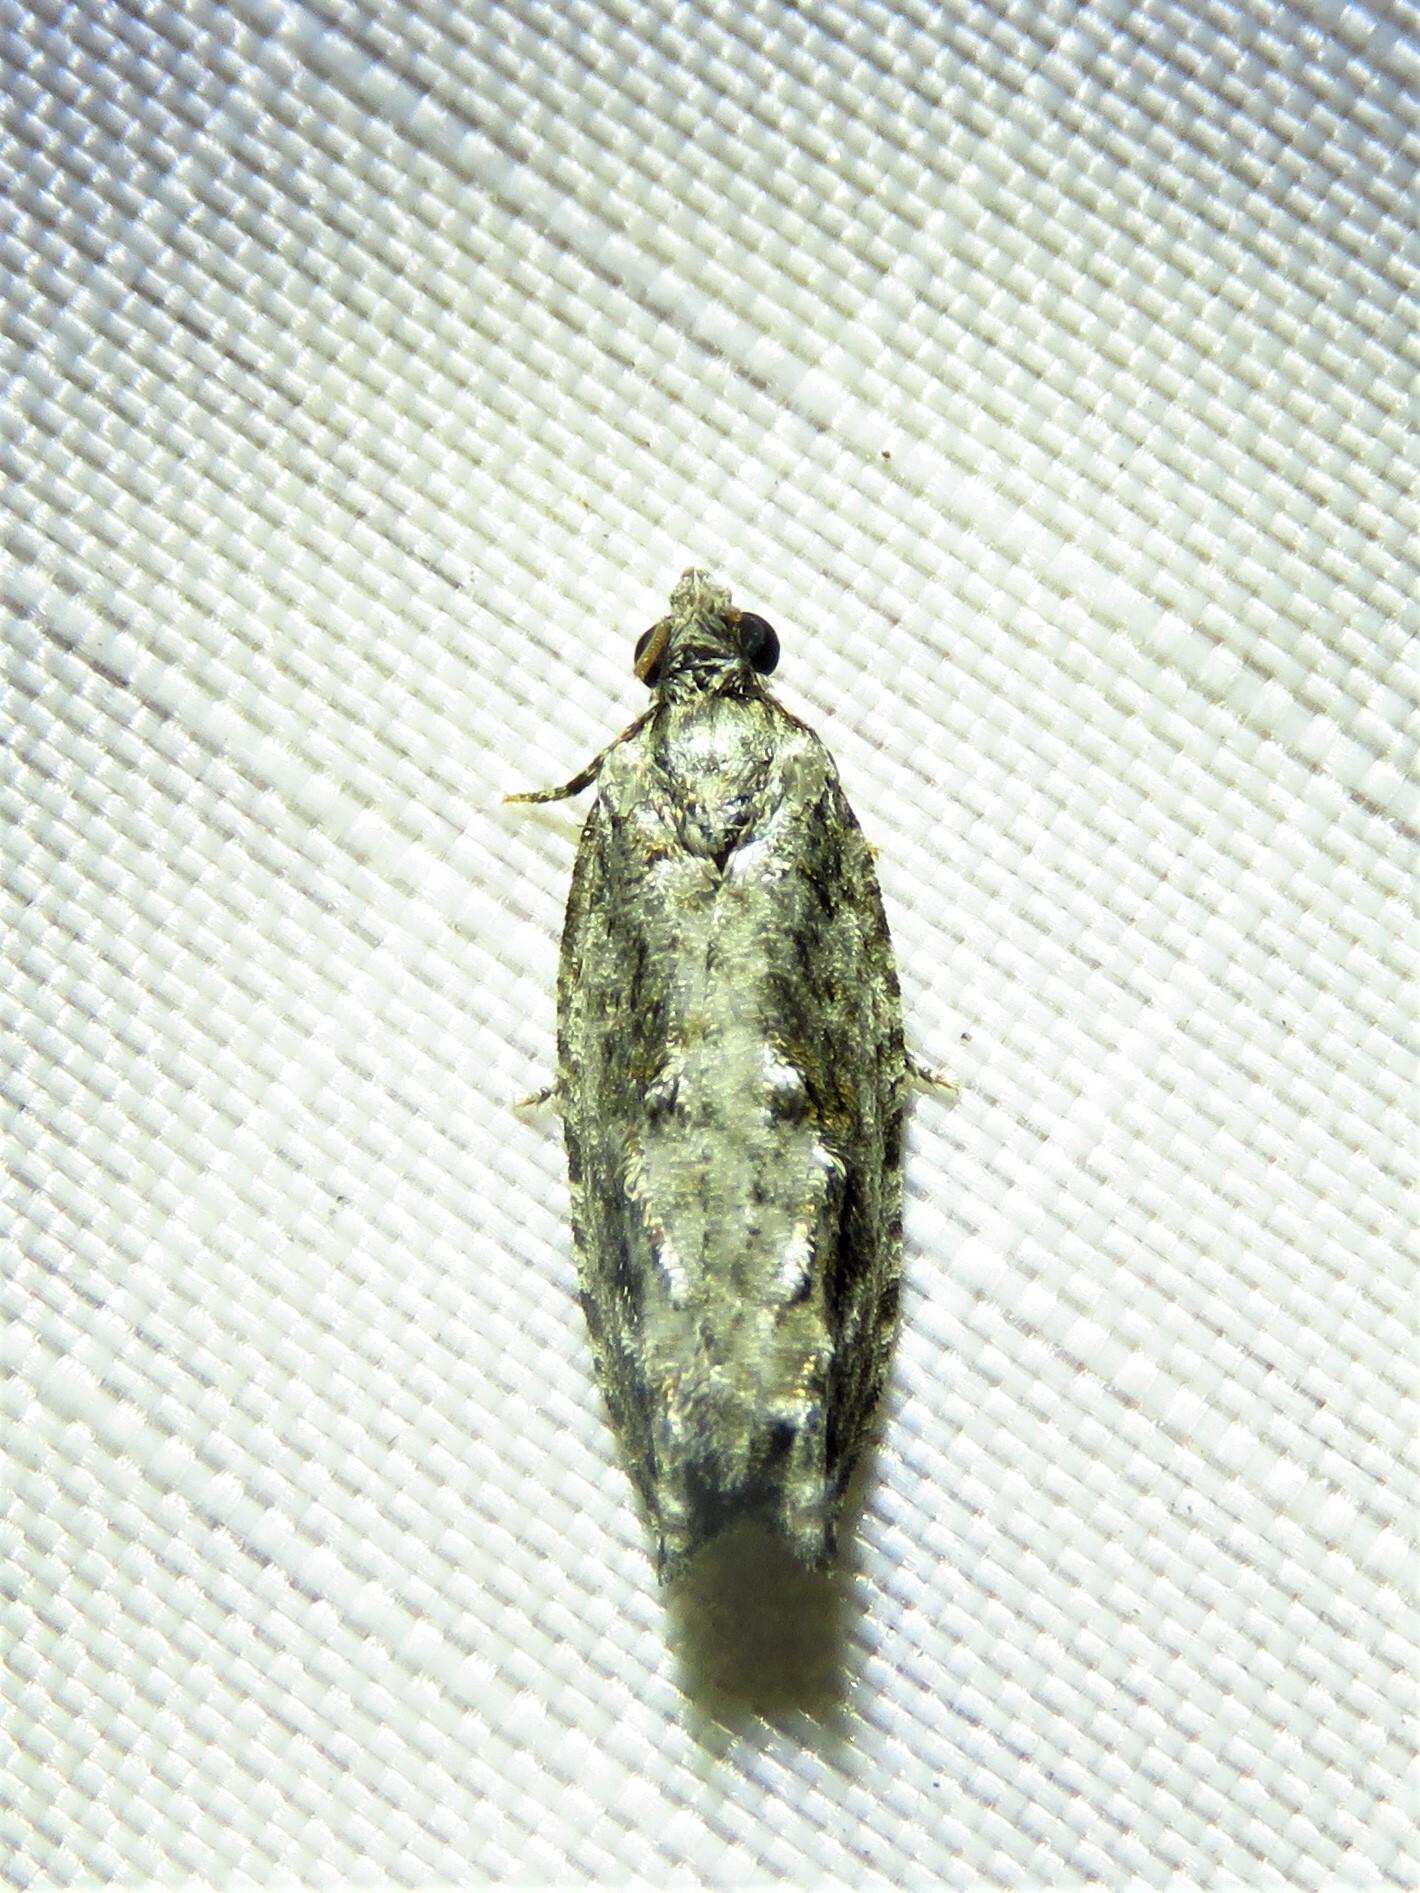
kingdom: Animalia
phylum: Arthropoda
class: Insecta
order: Lepidoptera
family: Tortricidae
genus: Gretchena
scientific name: Gretchena bolliana
